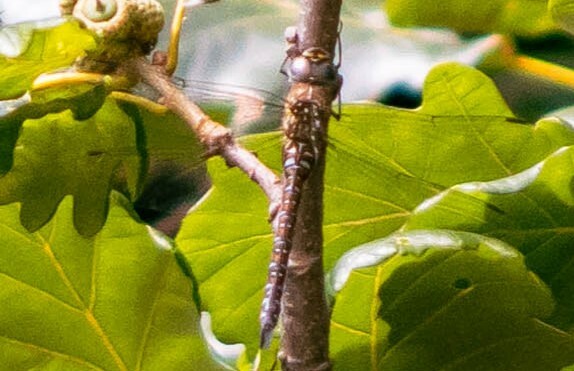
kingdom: Animalia
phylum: Arthropoda
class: Insecta
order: Odonata
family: Aeshnidae
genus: Aeshna
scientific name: Aeshna mixta
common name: Migrant hawker
